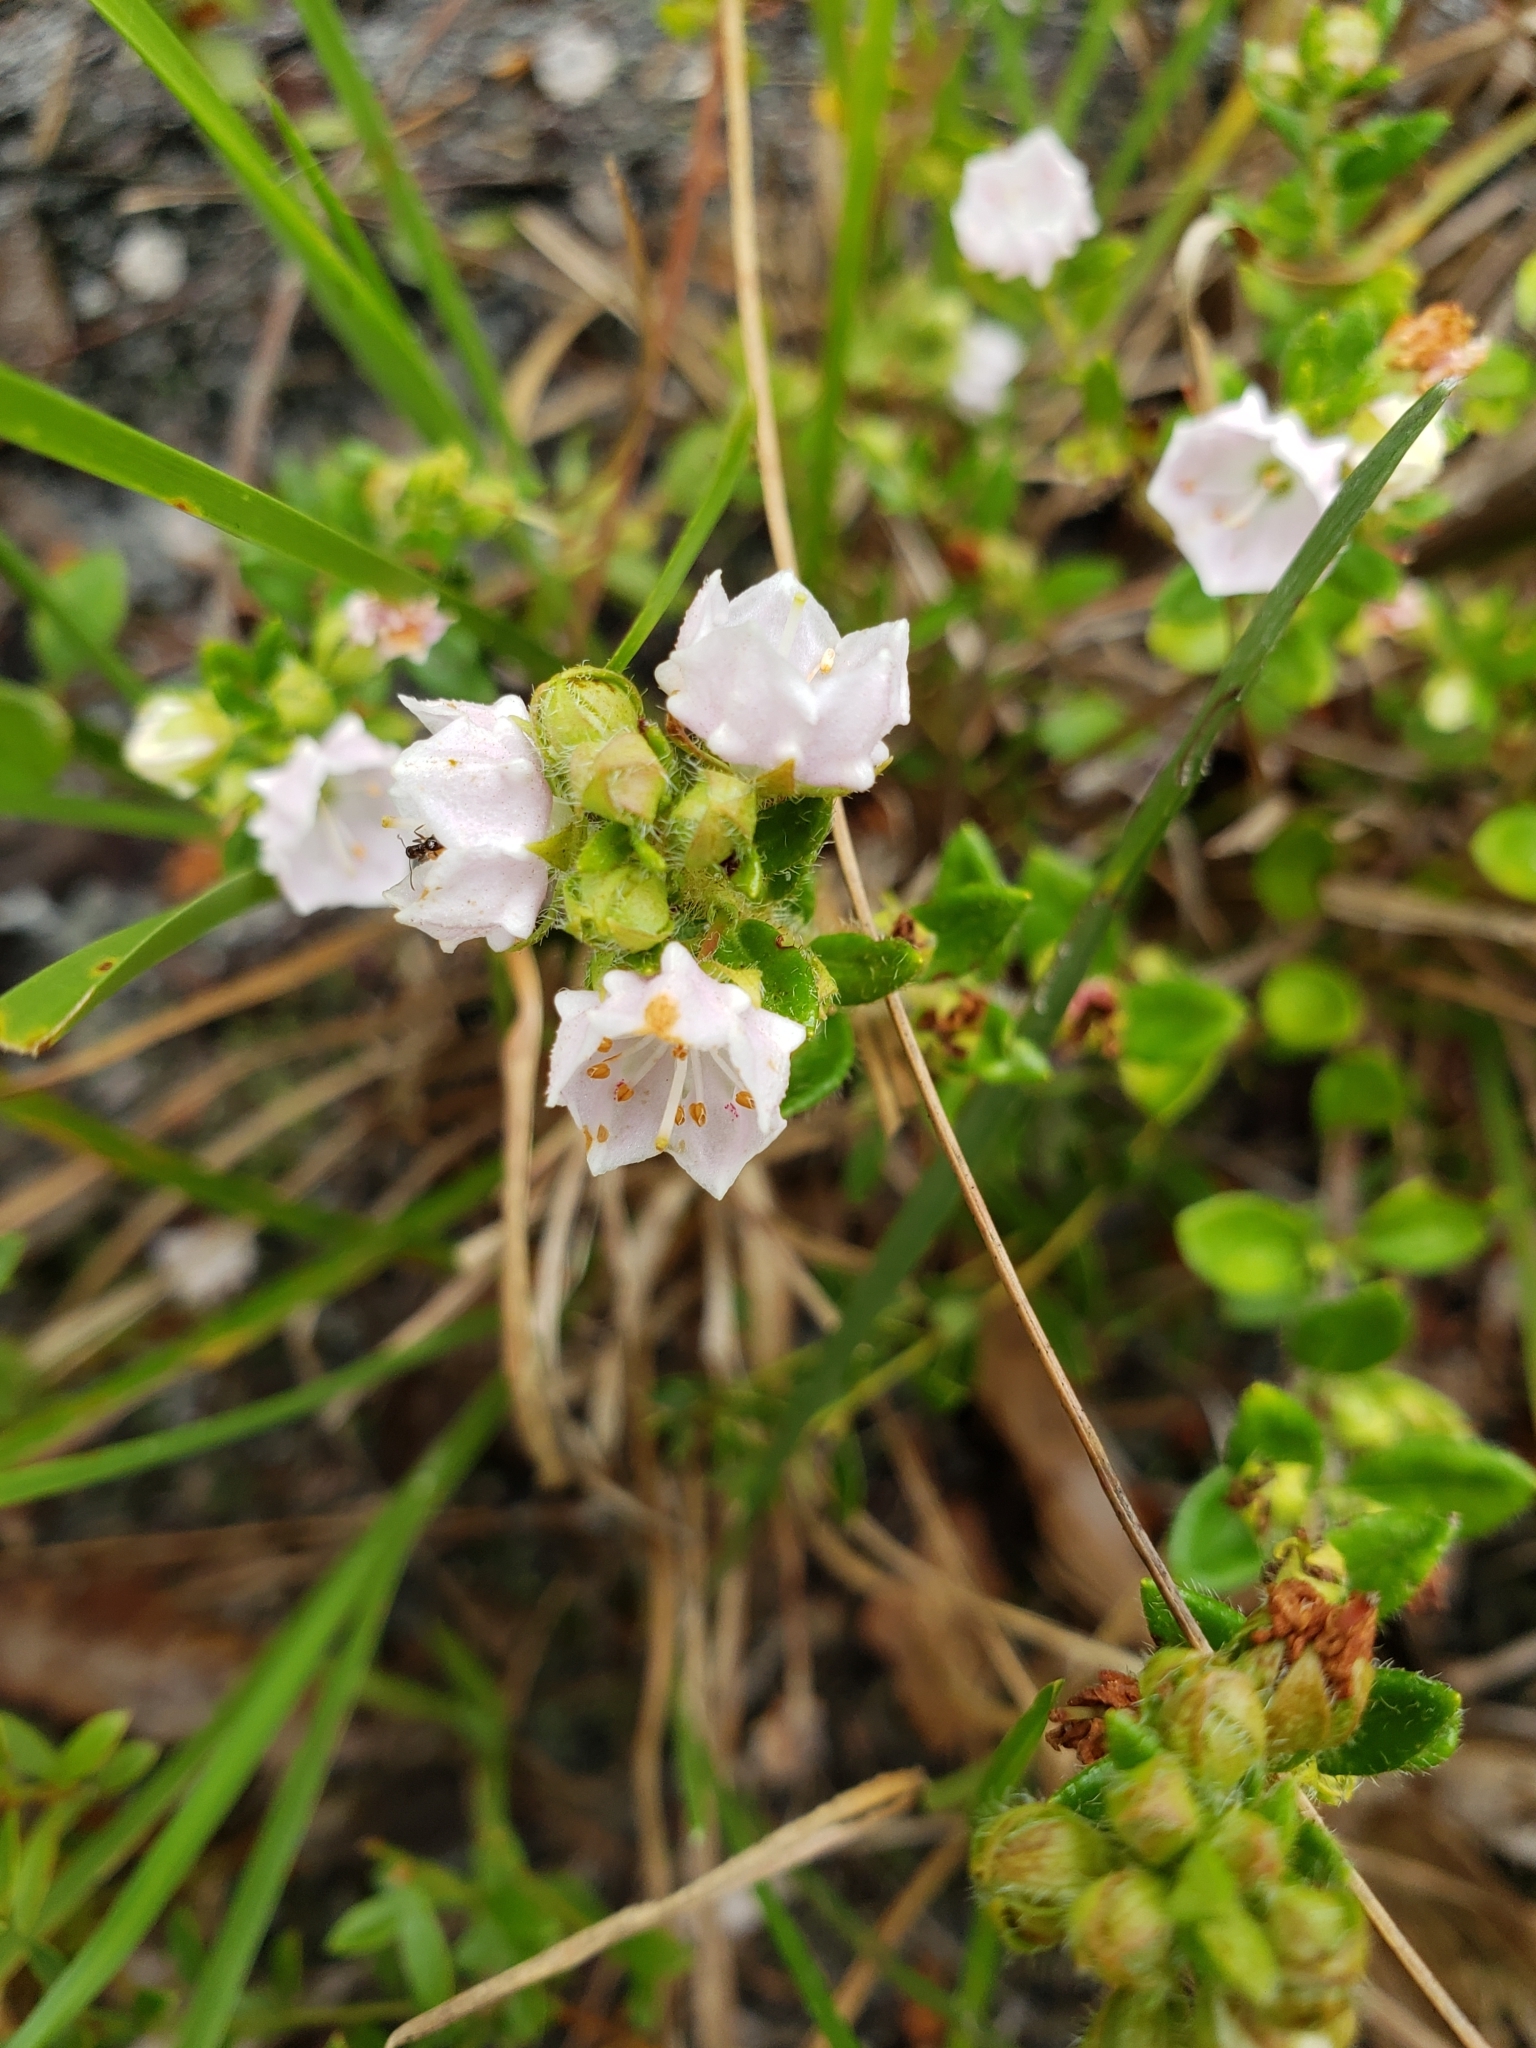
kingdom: Plantae
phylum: Tracheophyta
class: Magnoliopsida
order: Ericales
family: Ericaceae
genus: Kalmia
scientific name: Kalmia hirsuta
